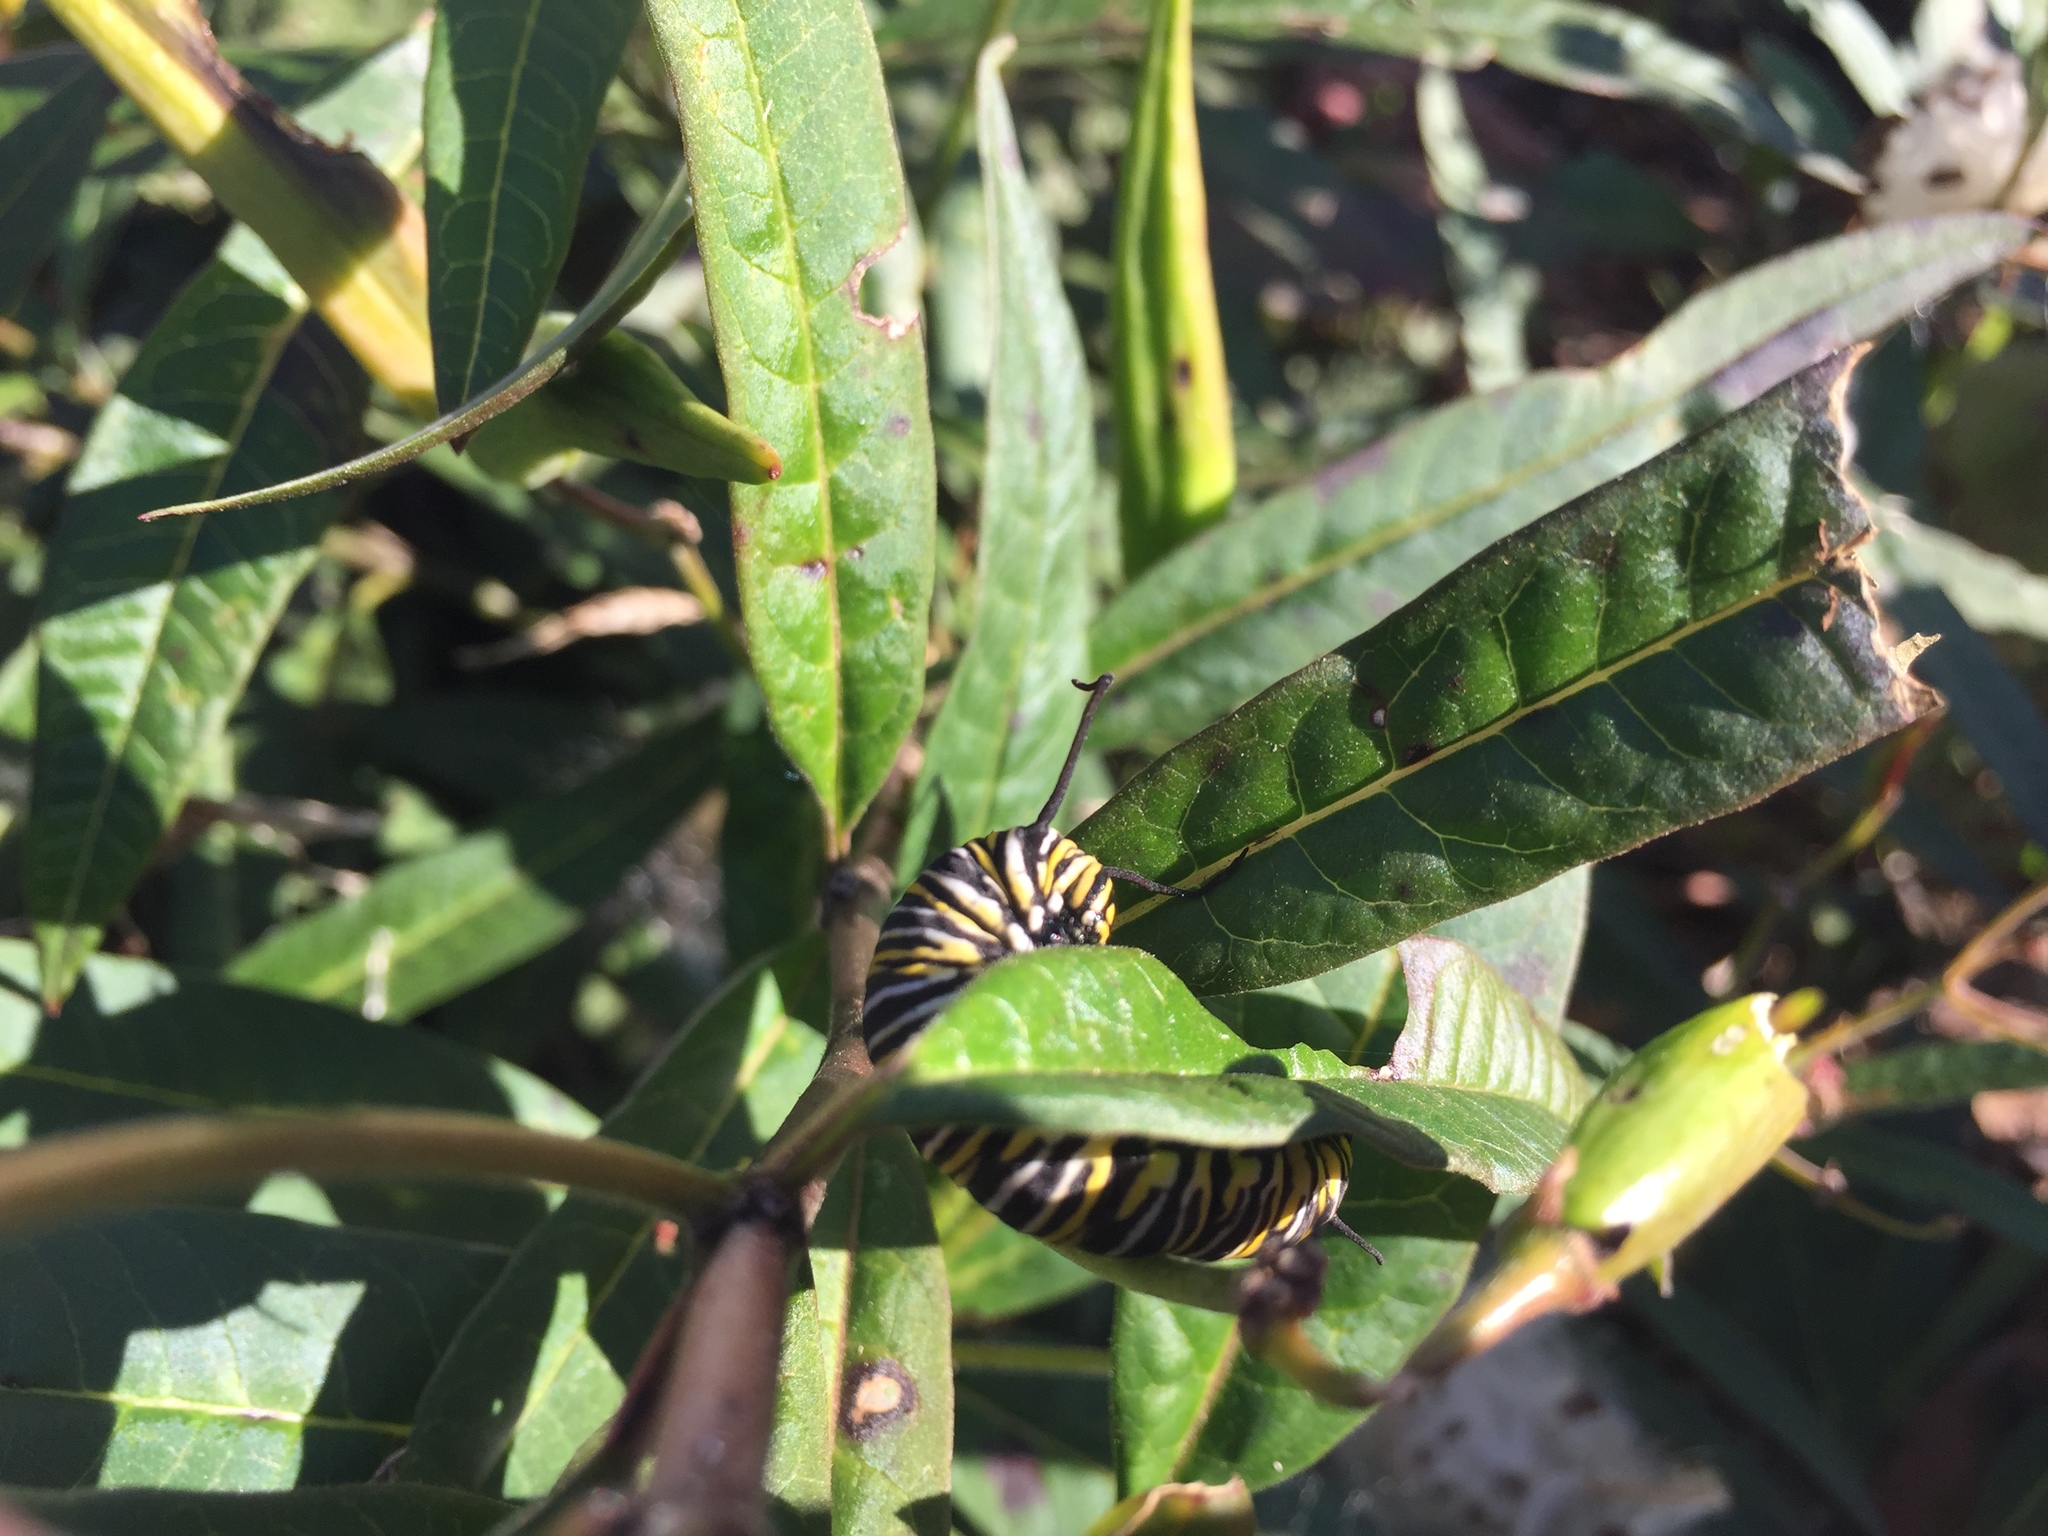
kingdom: Animalia
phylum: Arthropoda
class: Insecta
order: Lepidoptera
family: Nymphalidae
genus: Danaus
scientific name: Danaus plexippus
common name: Monarch
